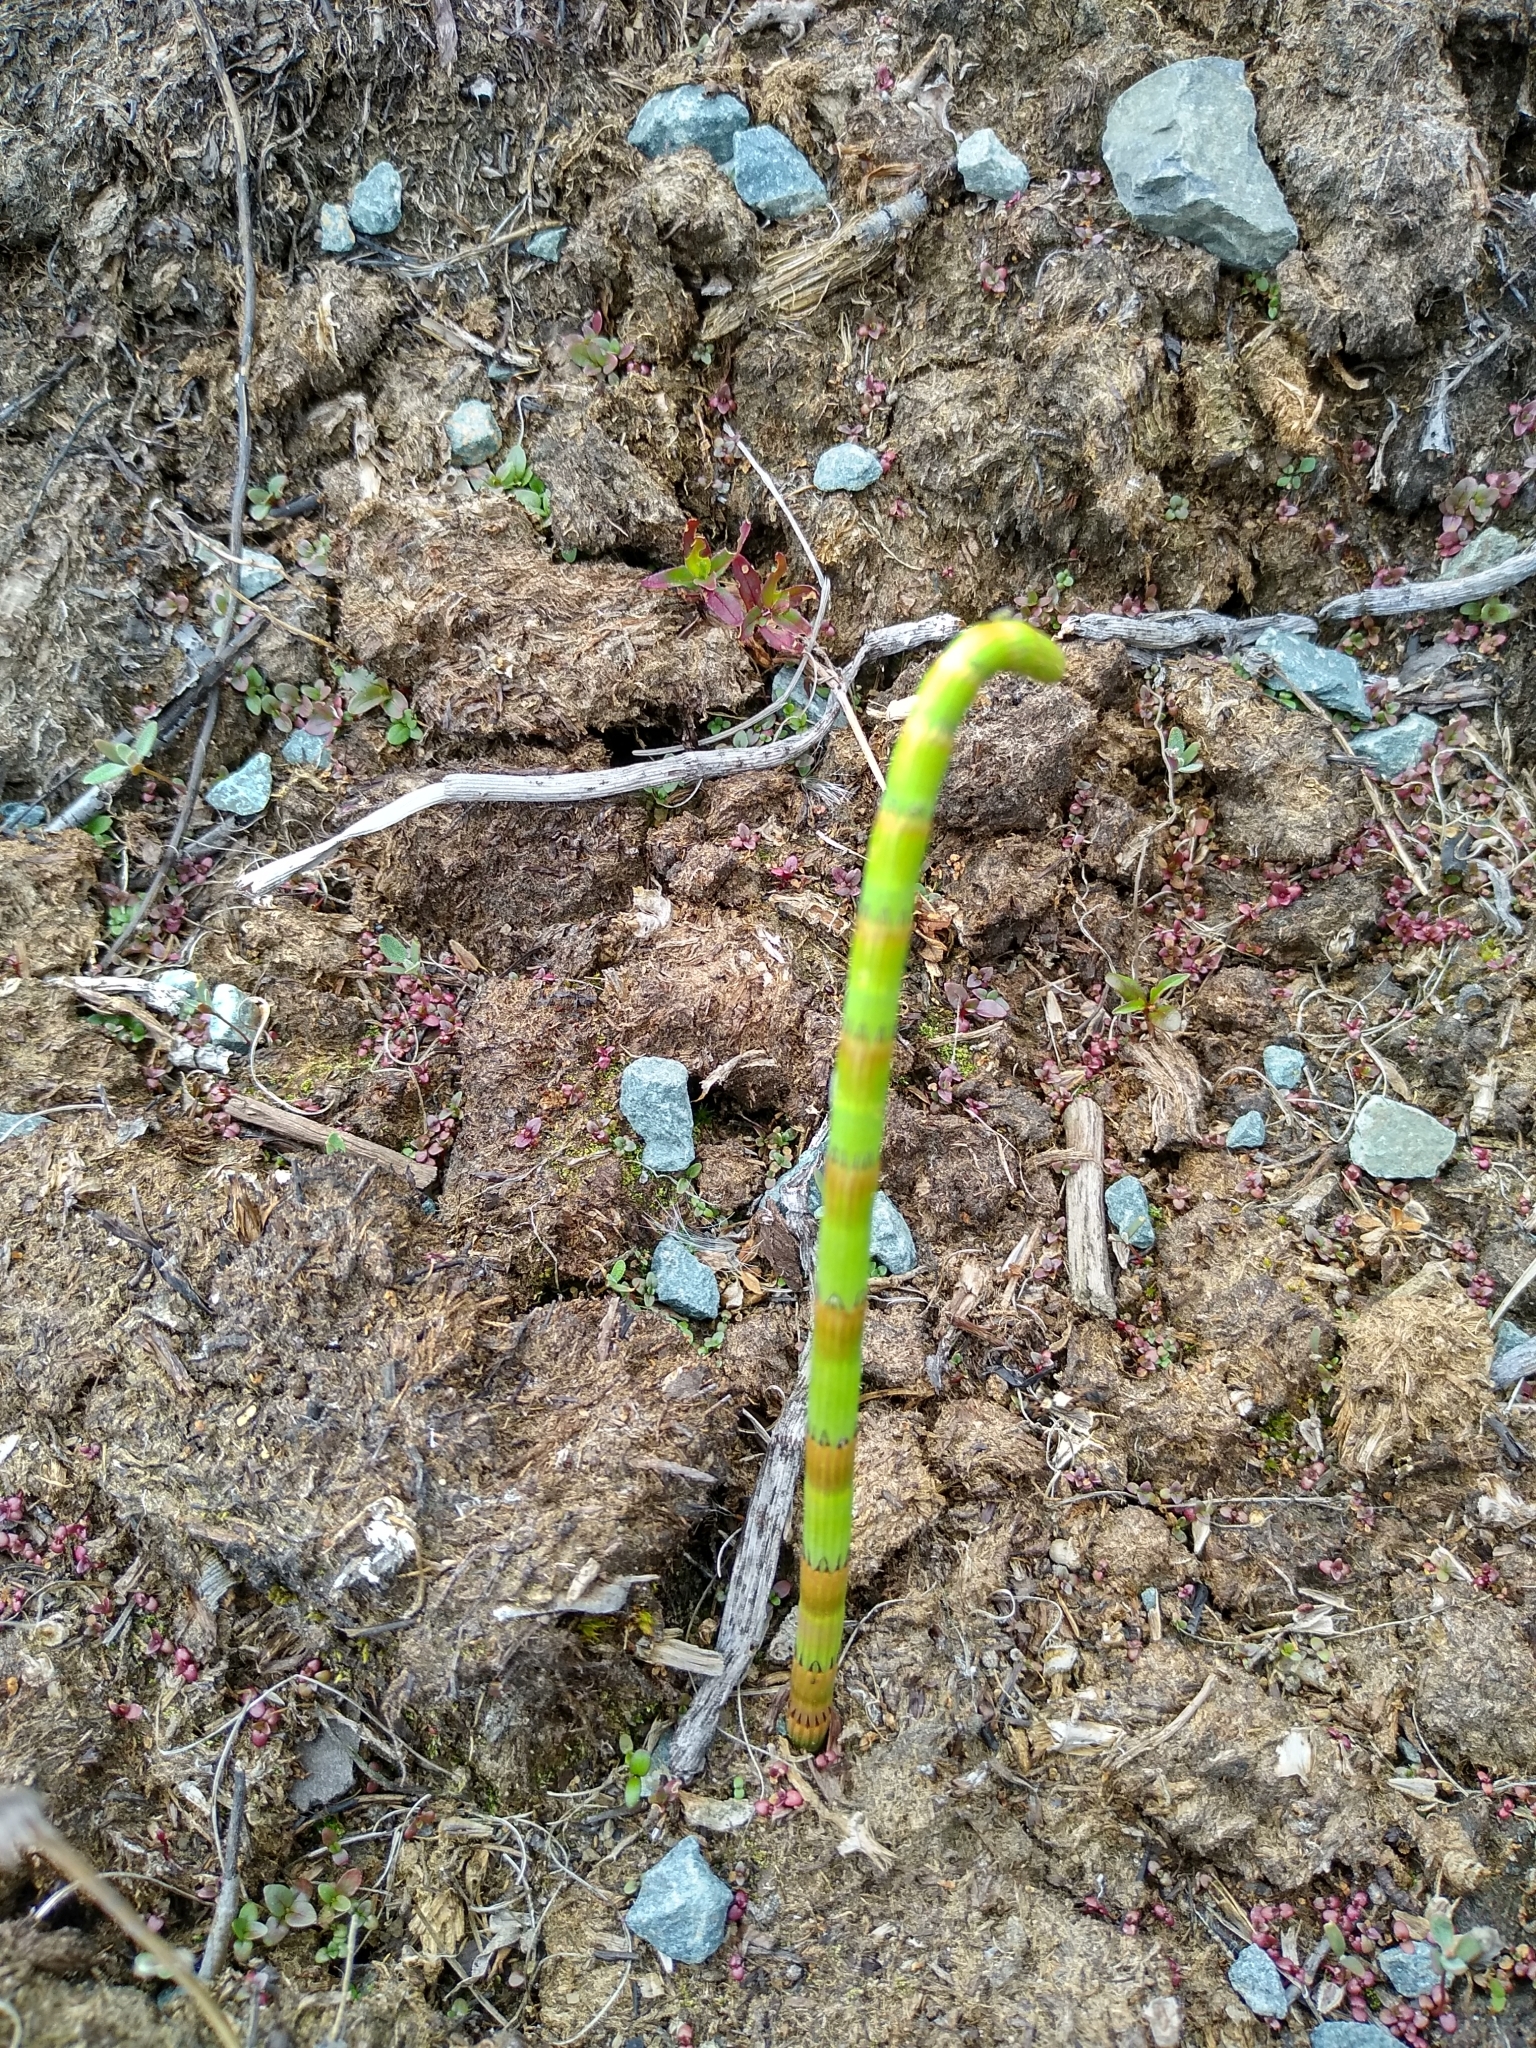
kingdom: Plantae
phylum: Tracheophyta
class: Polypodiopsida
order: Equisetales
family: Equisetaceae
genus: Equisetum
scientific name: Equisetum fluviatile
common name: Water horsetail
